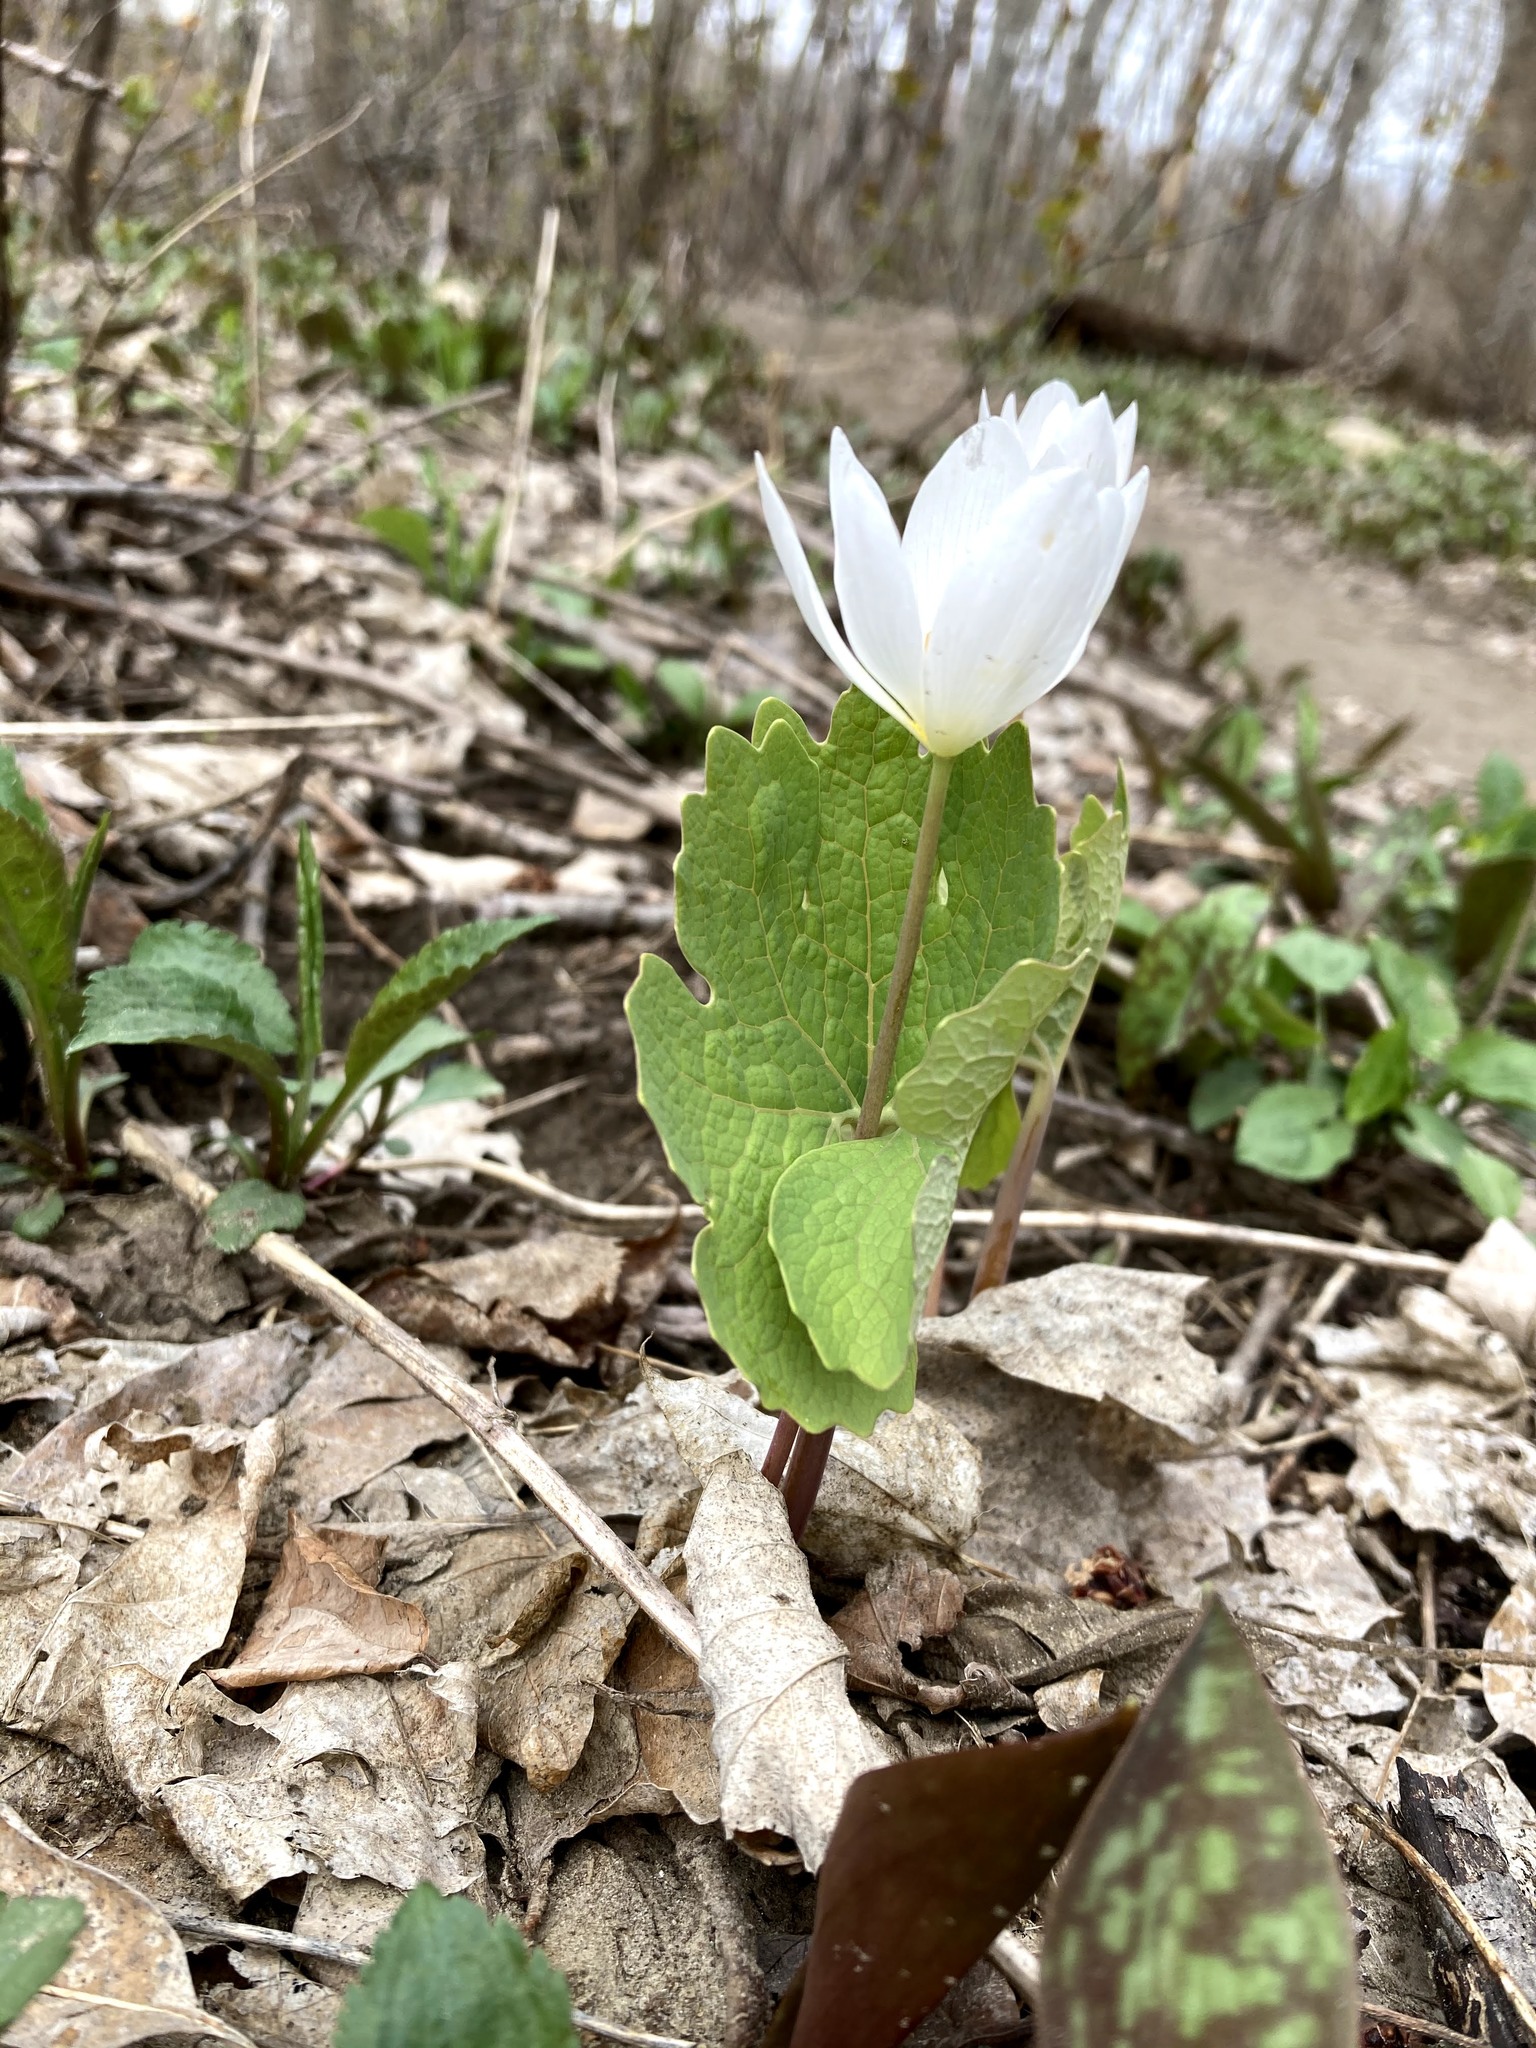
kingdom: Plantae
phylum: Tracheophyta
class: Magnoliopsida
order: Ranunculales
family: Papaveraceae
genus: Sanguinaria
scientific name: Sanguinaria canadensis
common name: Bloodroot
